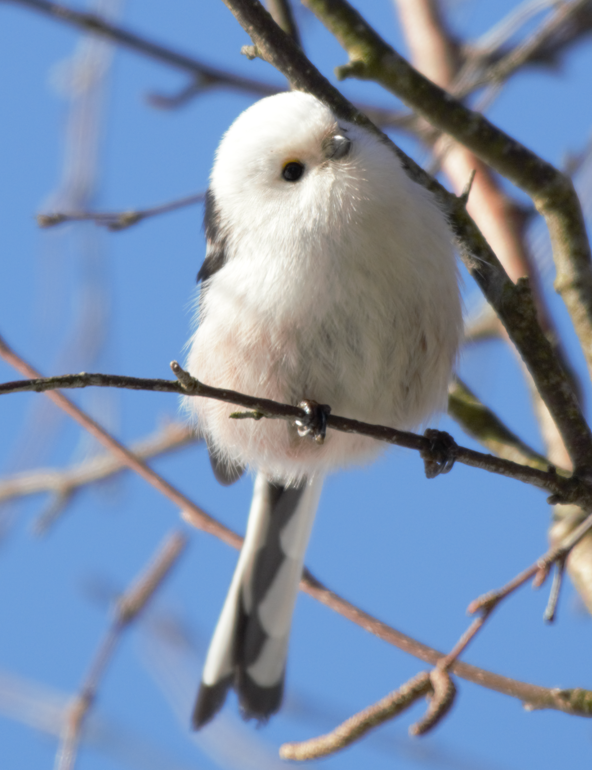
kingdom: Animalia
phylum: Chordata
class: Aves
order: Passeriformes
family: Aegithalidae
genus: Aegithalos
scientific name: Aegithalos caudatus
